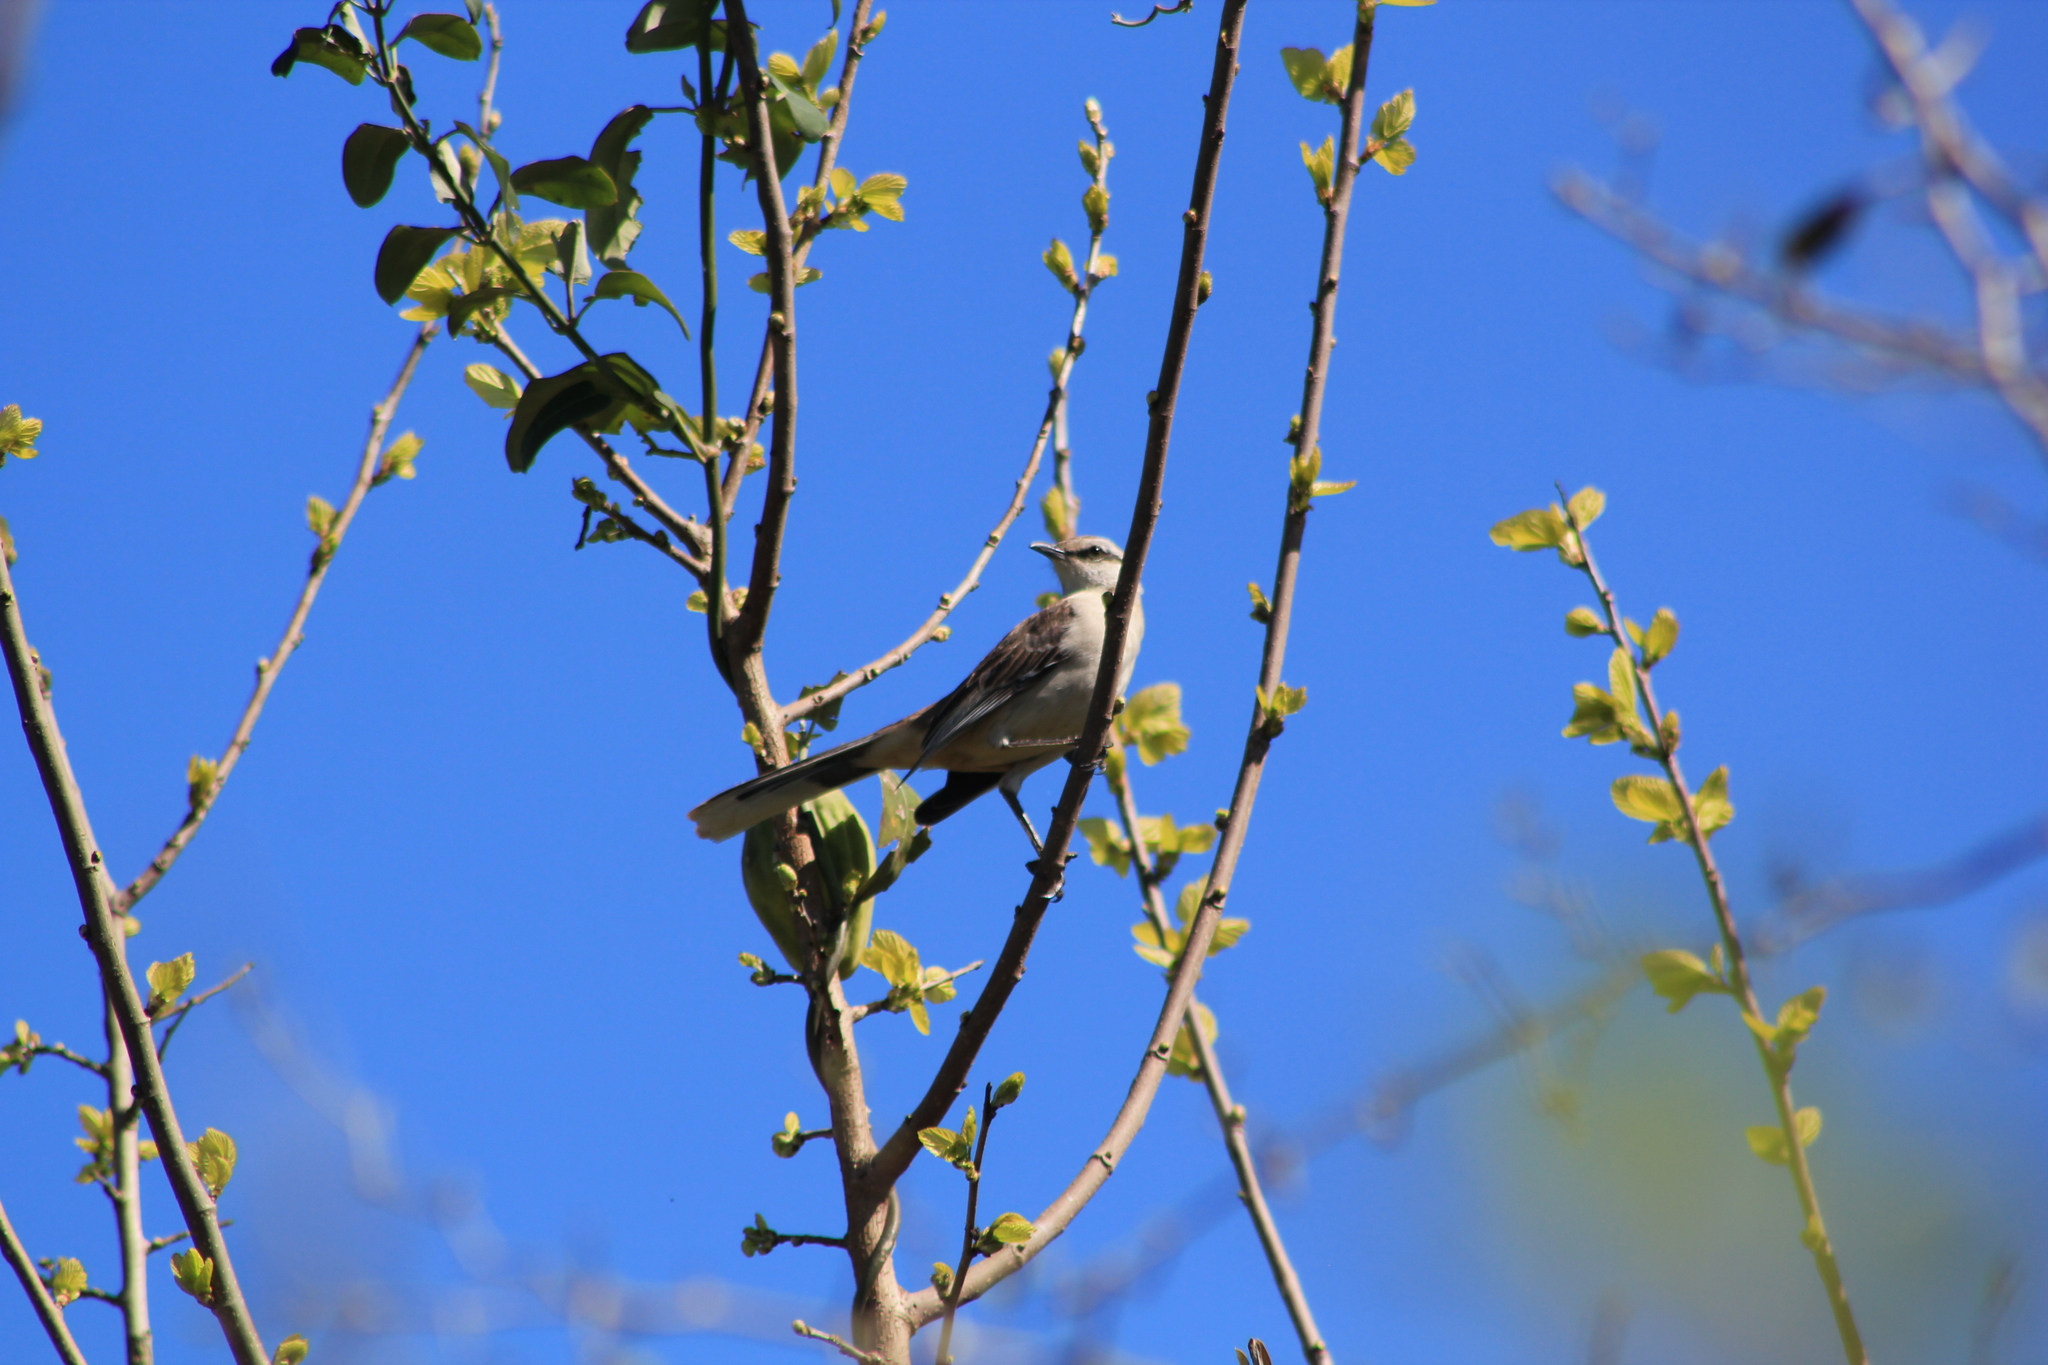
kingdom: Animalia
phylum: Chordata
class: Aves
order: Passeriformes
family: Mimidae
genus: Mimus
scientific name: Mimus saturninus
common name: Chalk-browed mockingbird
